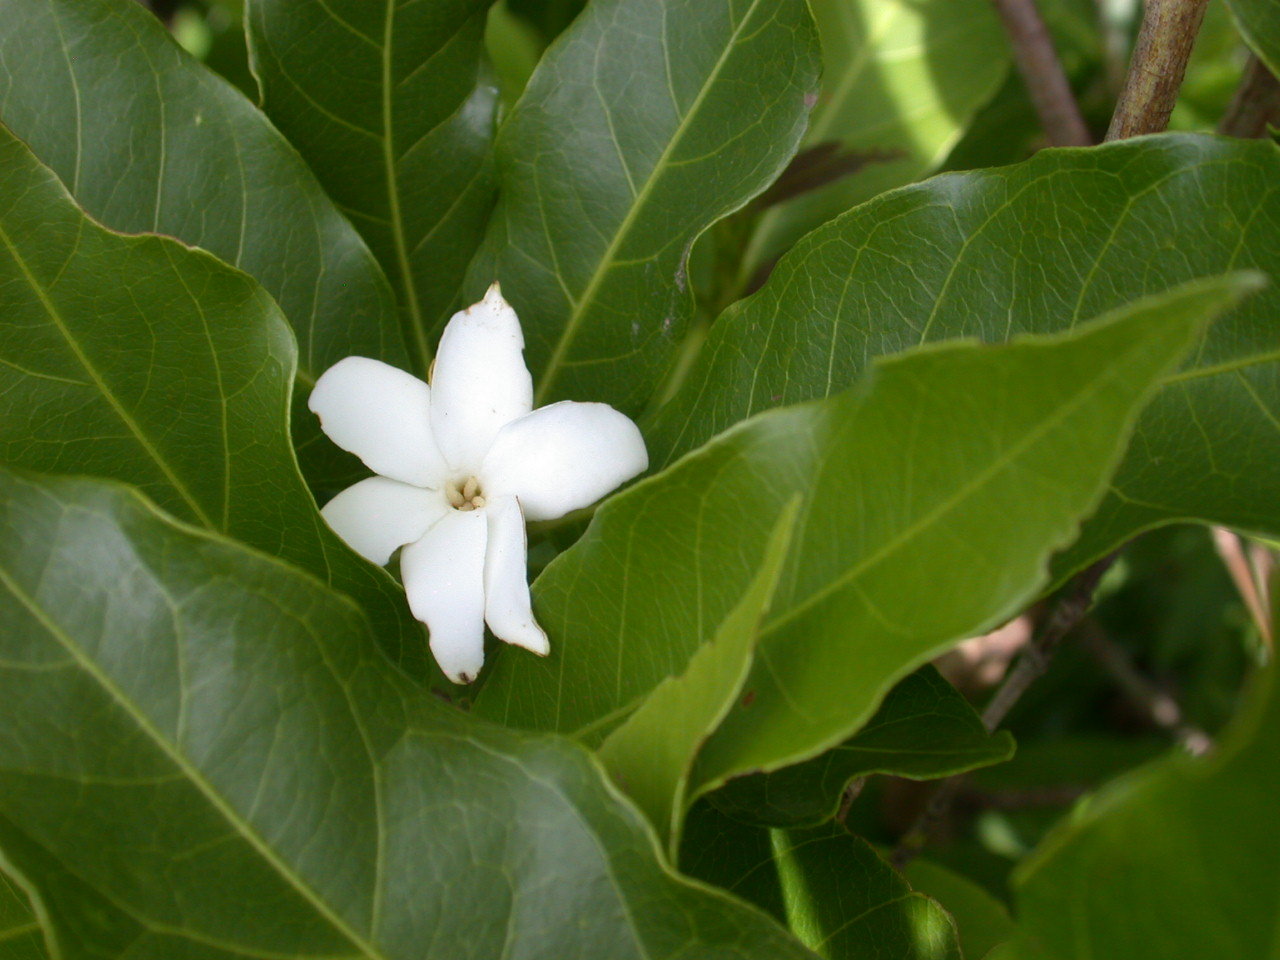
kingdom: Plantae
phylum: Tracheophyta
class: Magnoliopsida
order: Gentianales
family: Rubiaceae
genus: Blepharidium
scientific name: Blepharidium guatemalense
